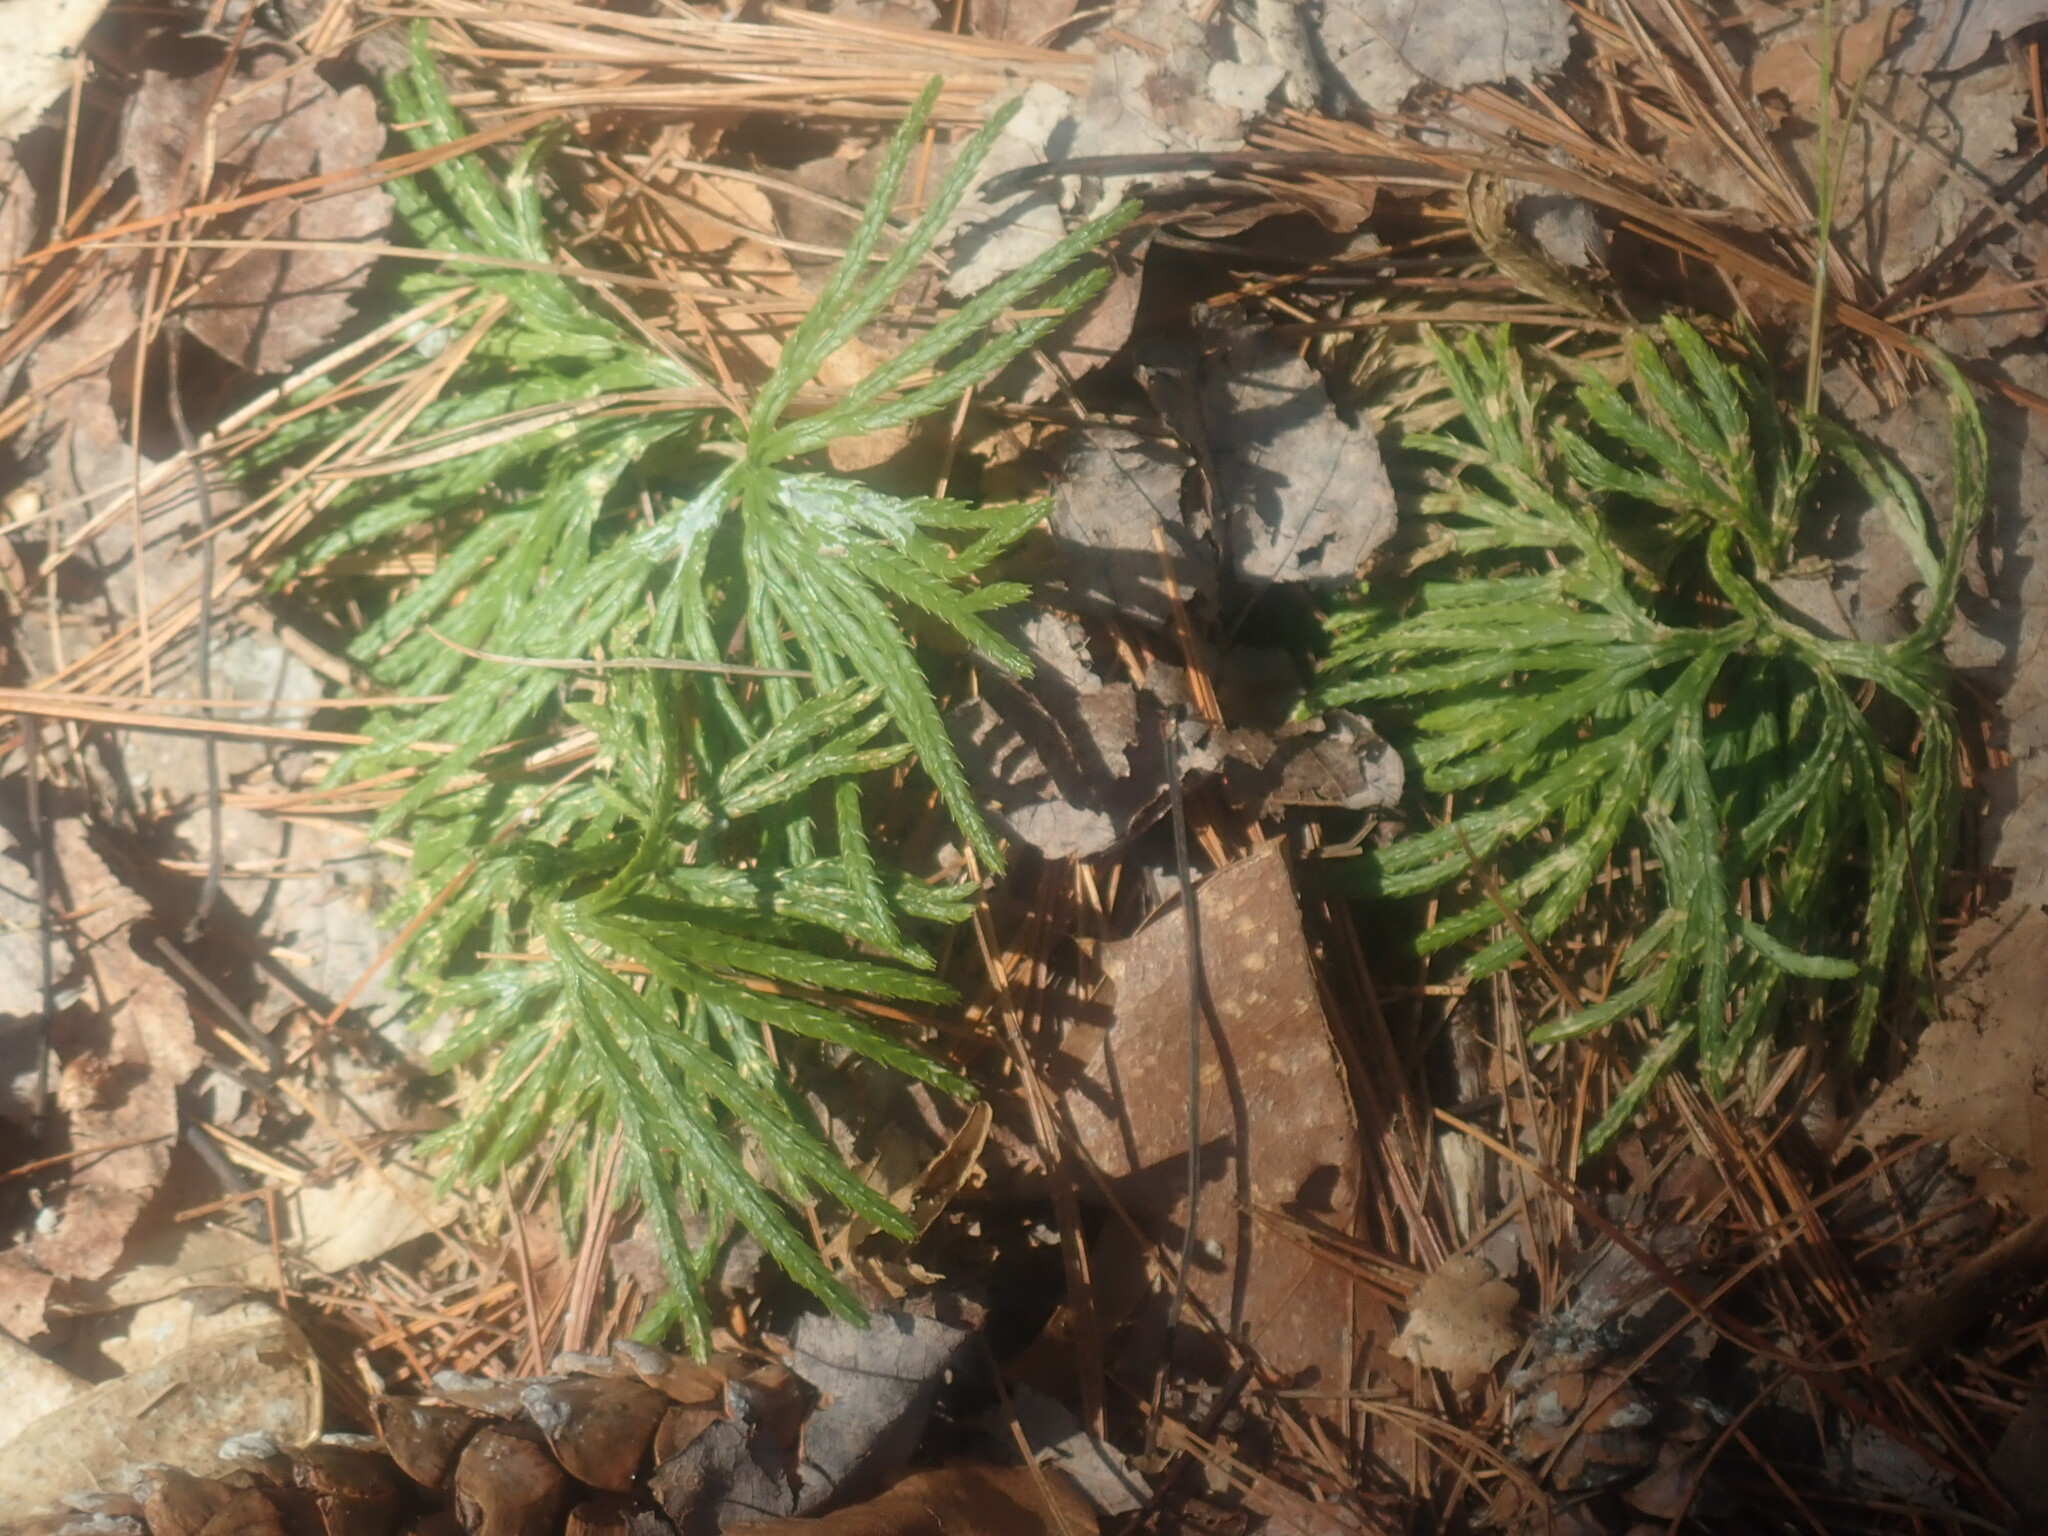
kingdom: Plantae
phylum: Tracheophyta
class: Lycopodiopsida
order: Lycopodiales
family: Lycopodiaceae
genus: Diphasiastrum
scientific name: Diphasiastrum digitatum
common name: Southern running-pine
